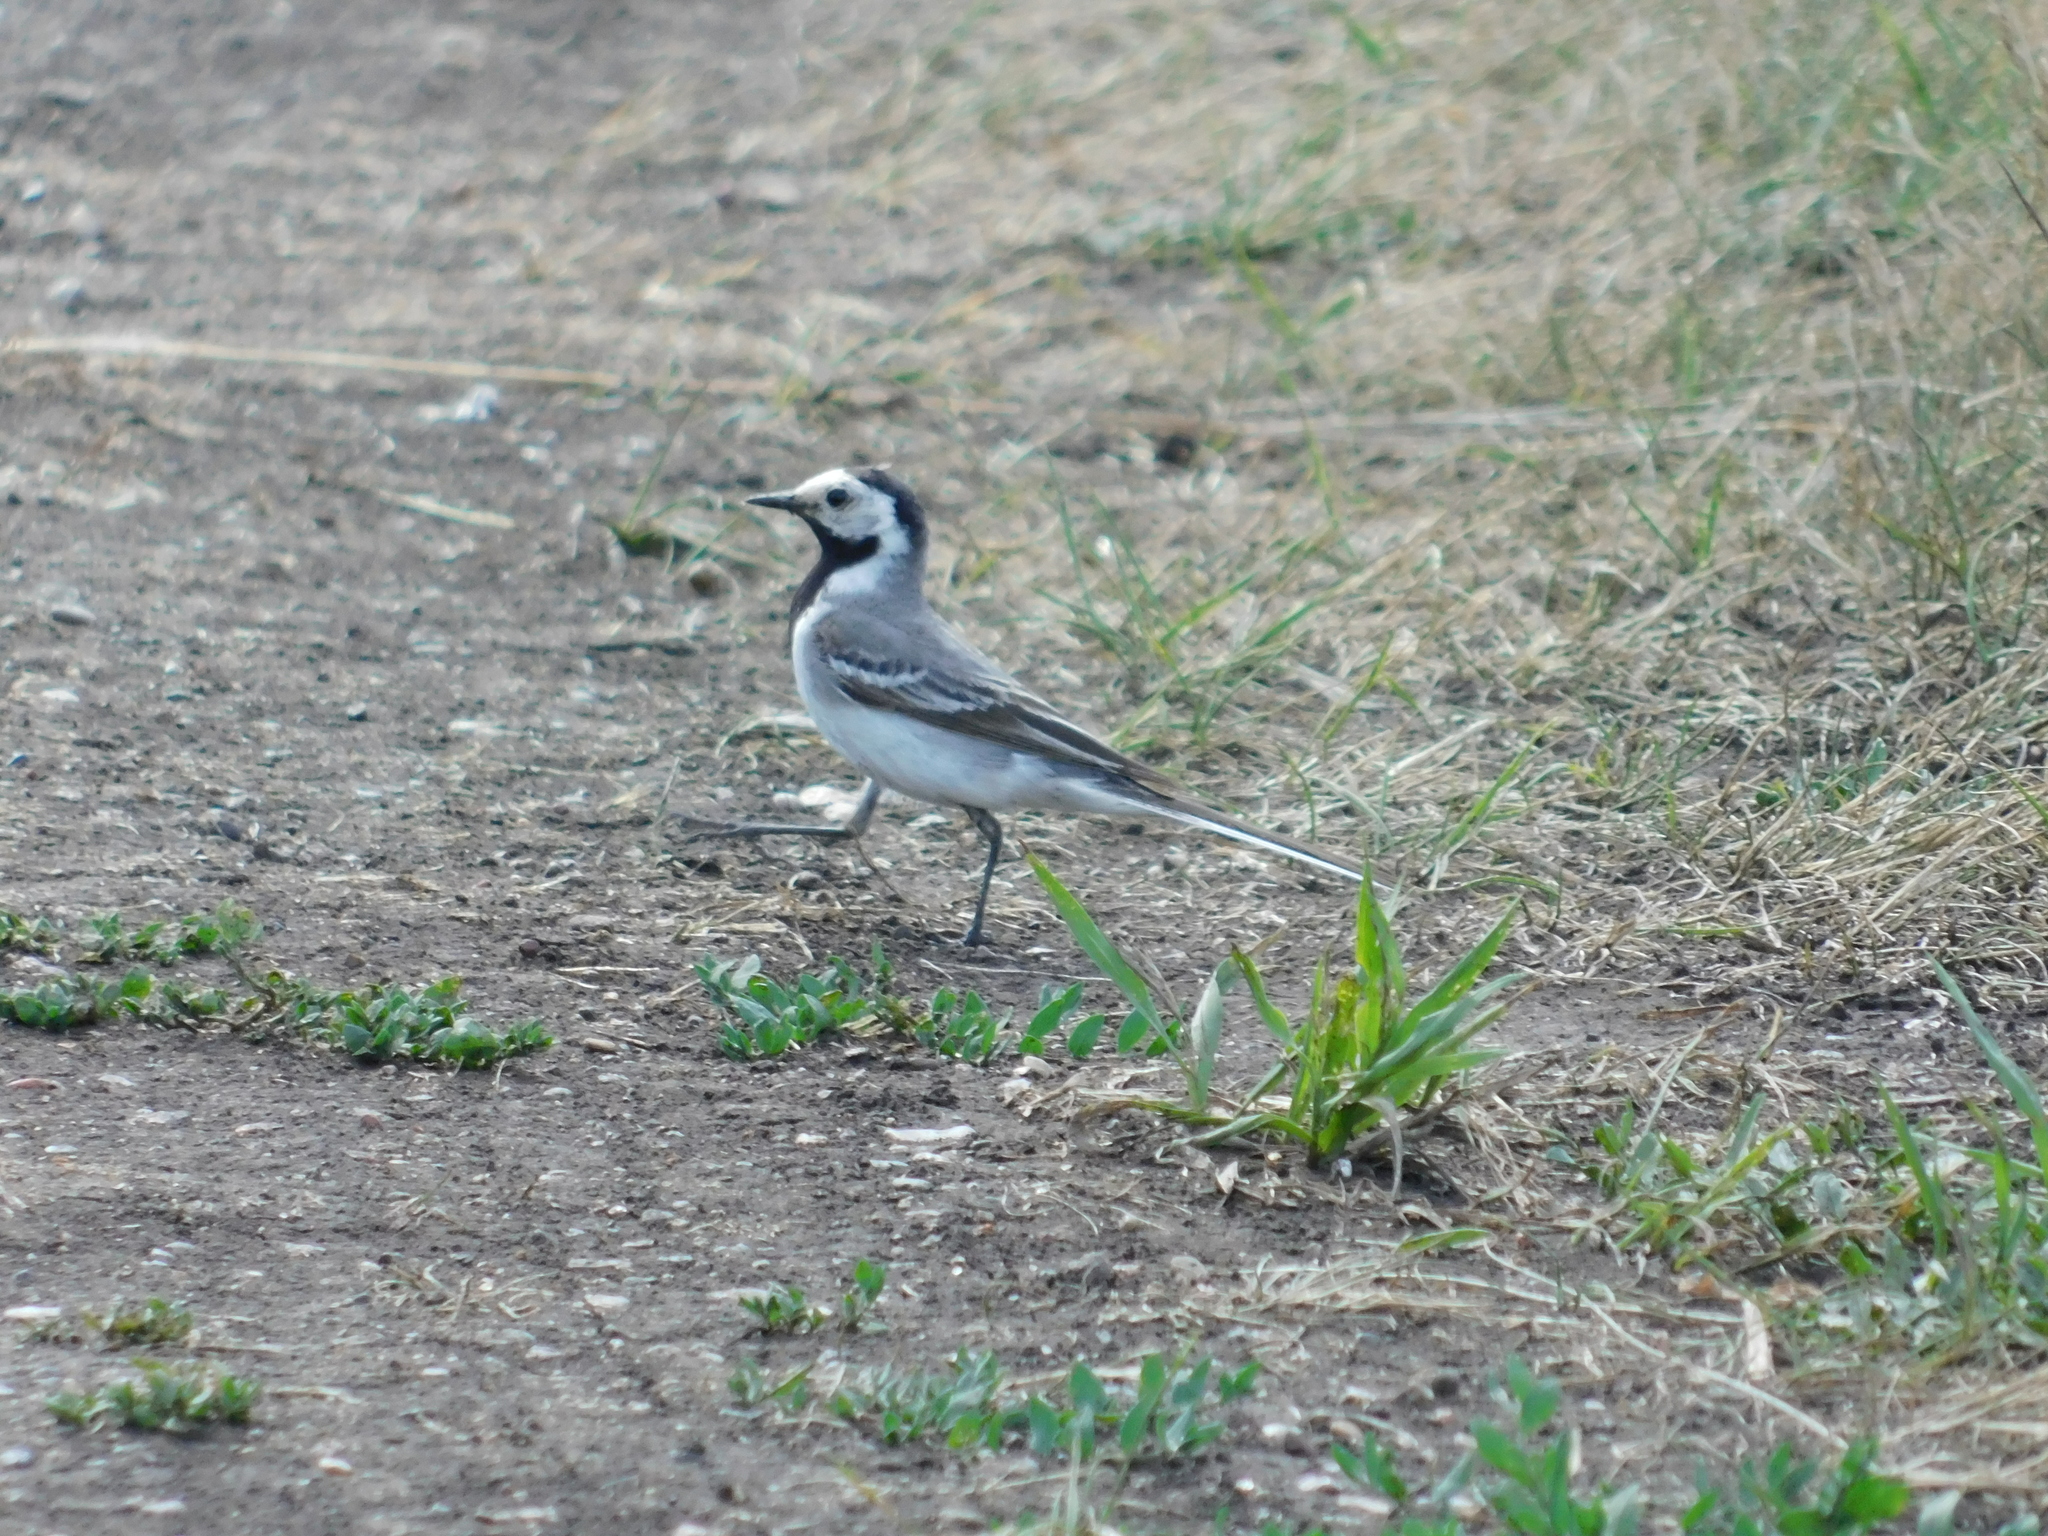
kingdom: Animalia
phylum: Chordata
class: Aves
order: Passeriformes
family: Motacillidae
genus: Motacilla
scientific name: Motacilla alba
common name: White wagtail
